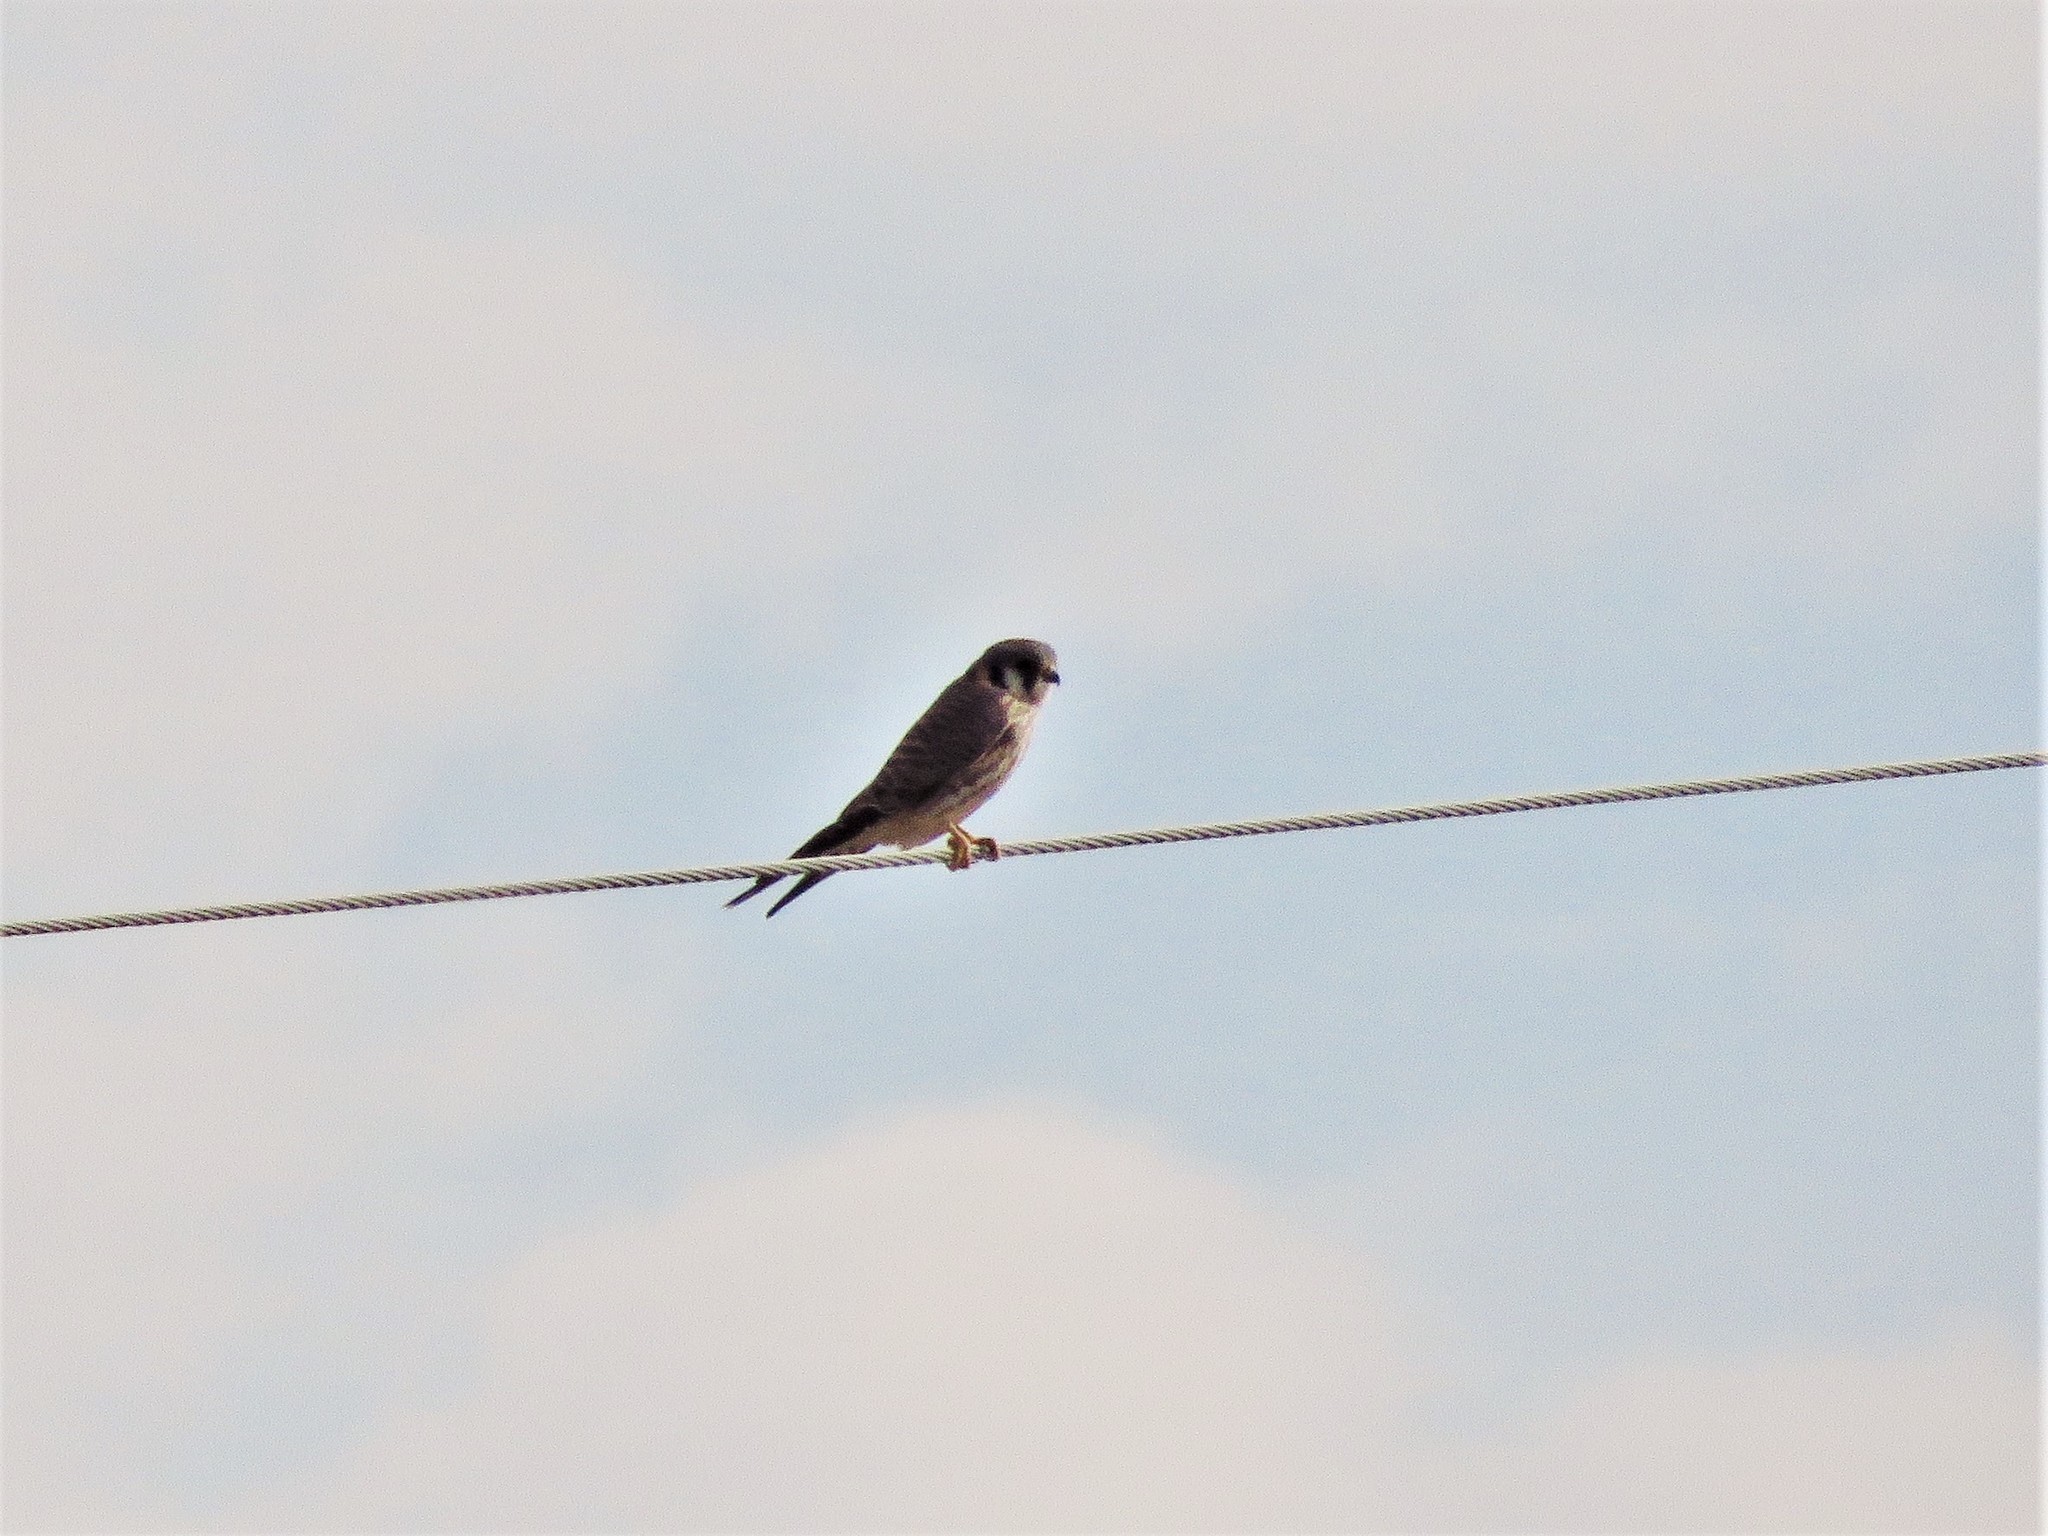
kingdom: Animalia
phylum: Chordata
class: Aves
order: Falconiformes
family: Falconidae
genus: Falco
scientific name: Falco sparverius
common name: American kestrel
